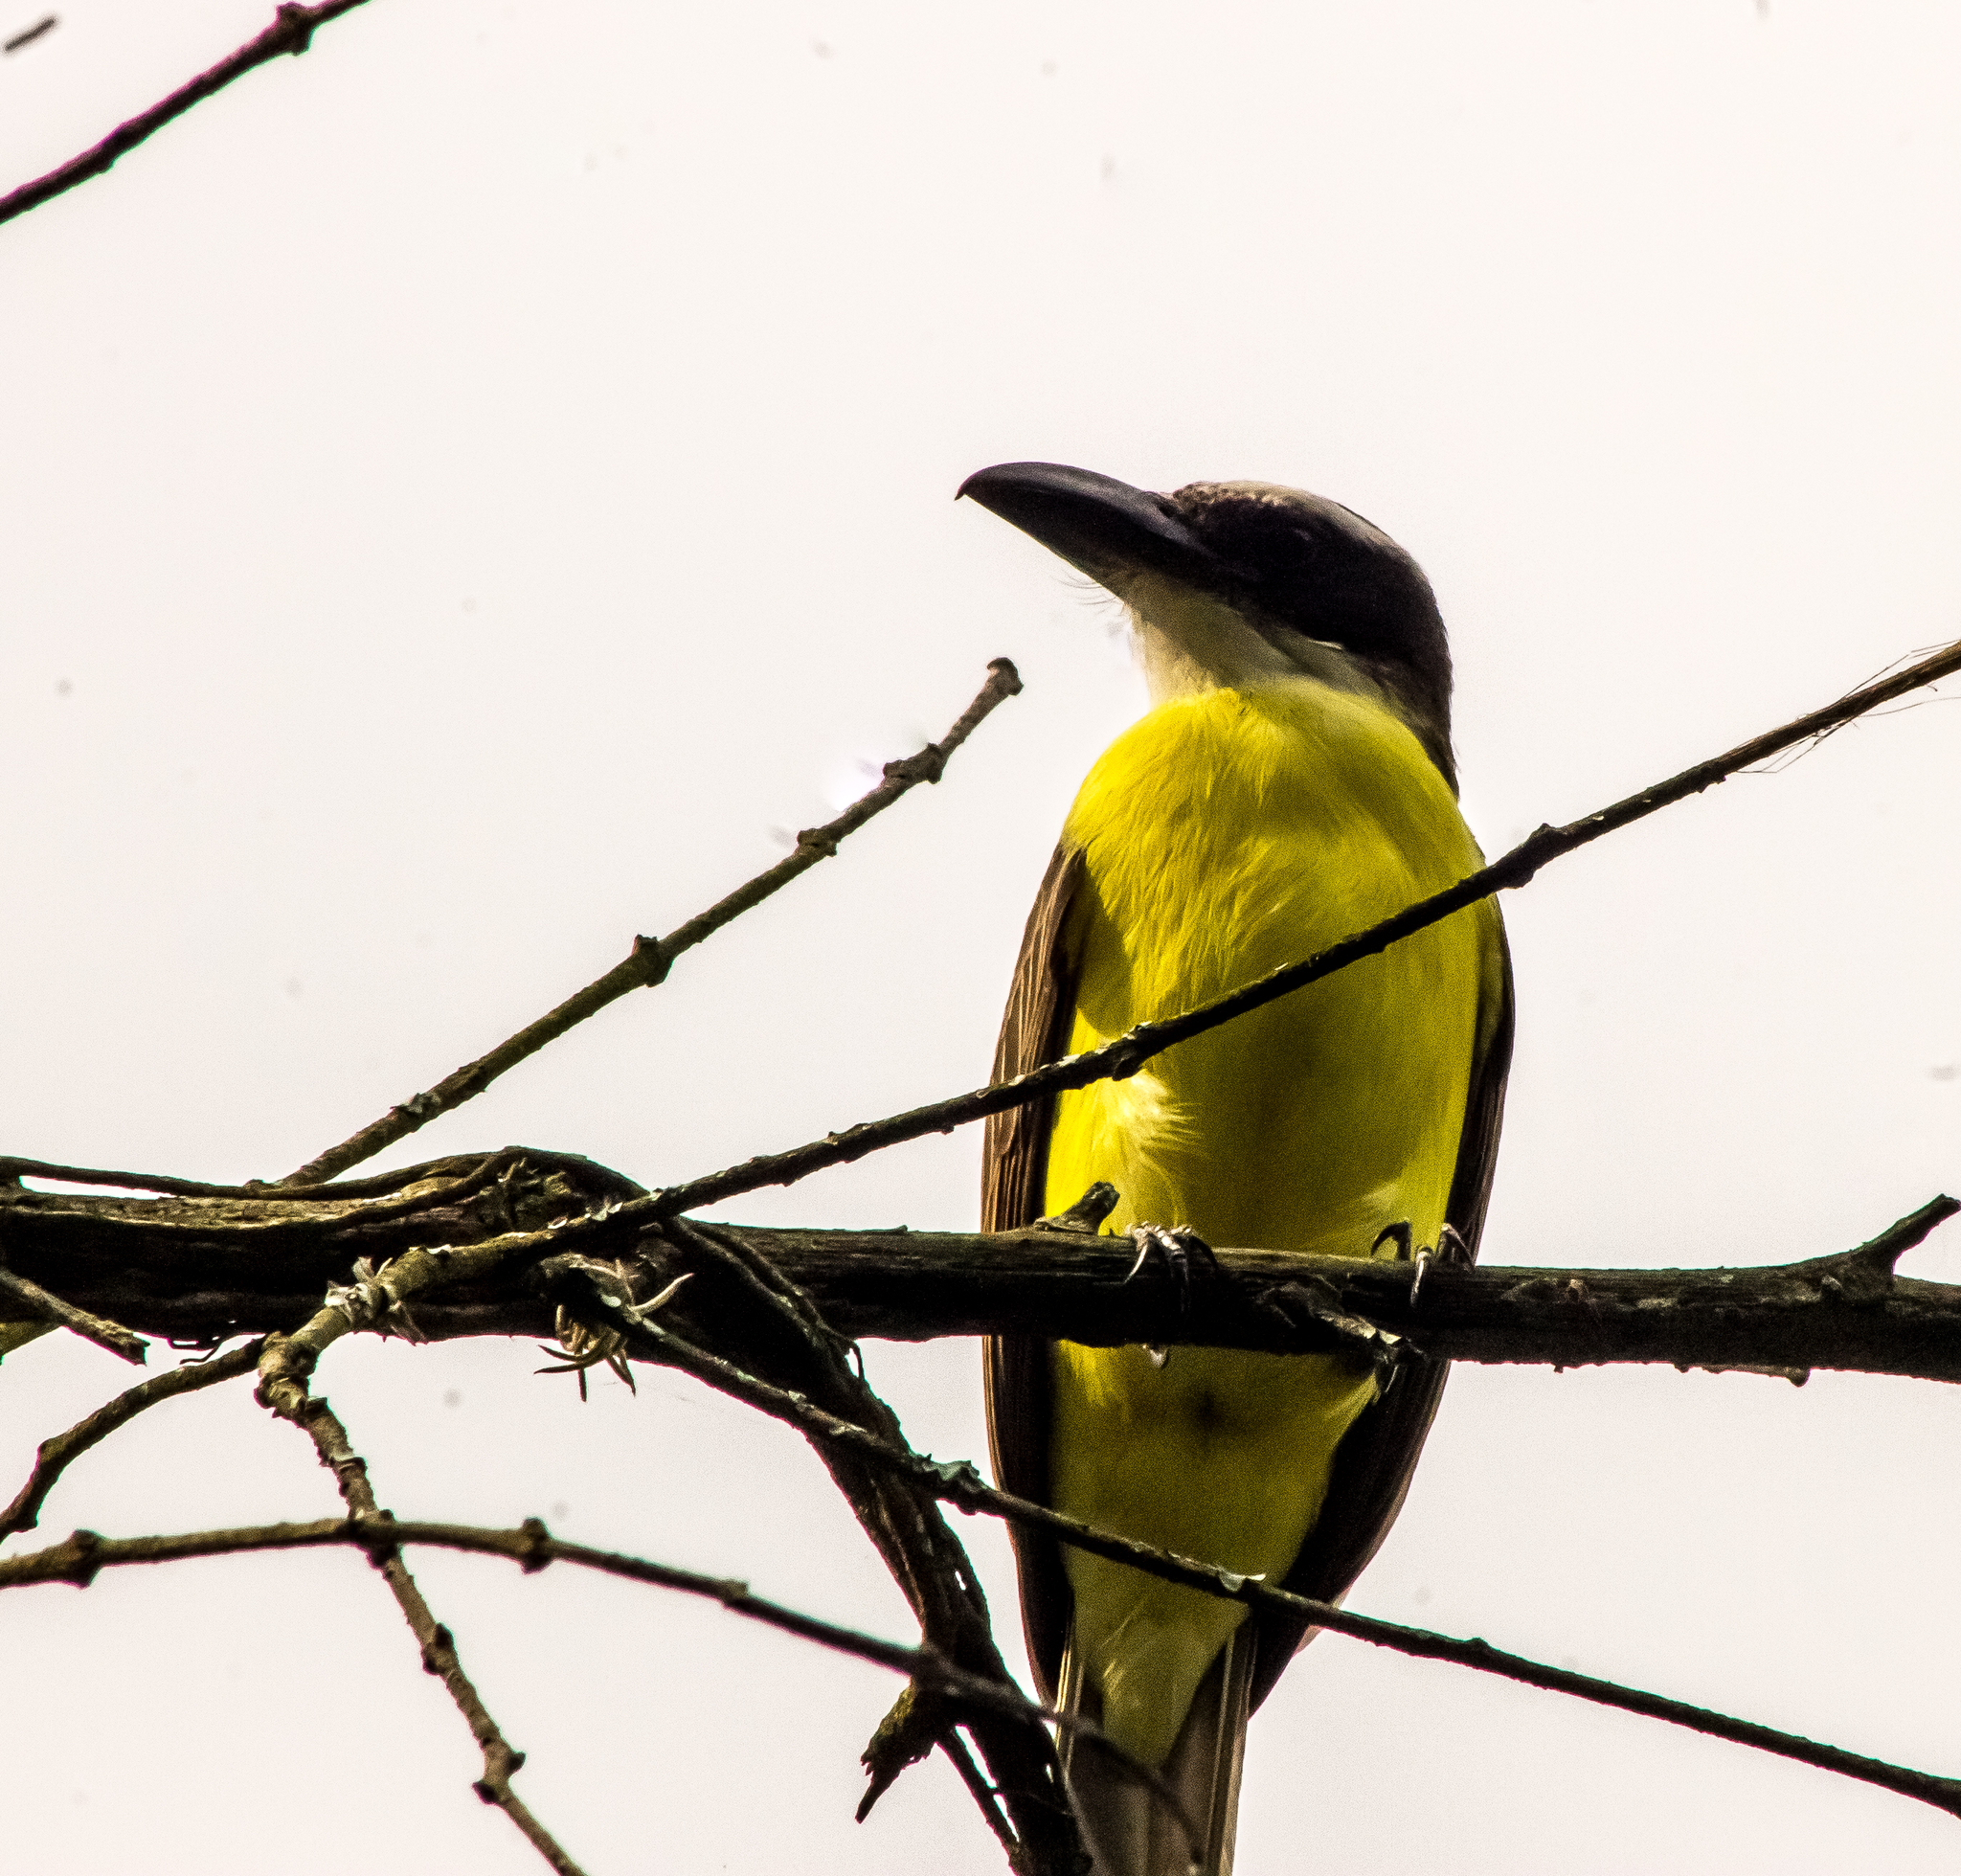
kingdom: Animalia
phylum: Chordata
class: Aves
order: Passeriformes
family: Tyrannidae
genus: Megarynchus
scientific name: Megarynchus pitangua
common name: Boat-billed flycatcher
